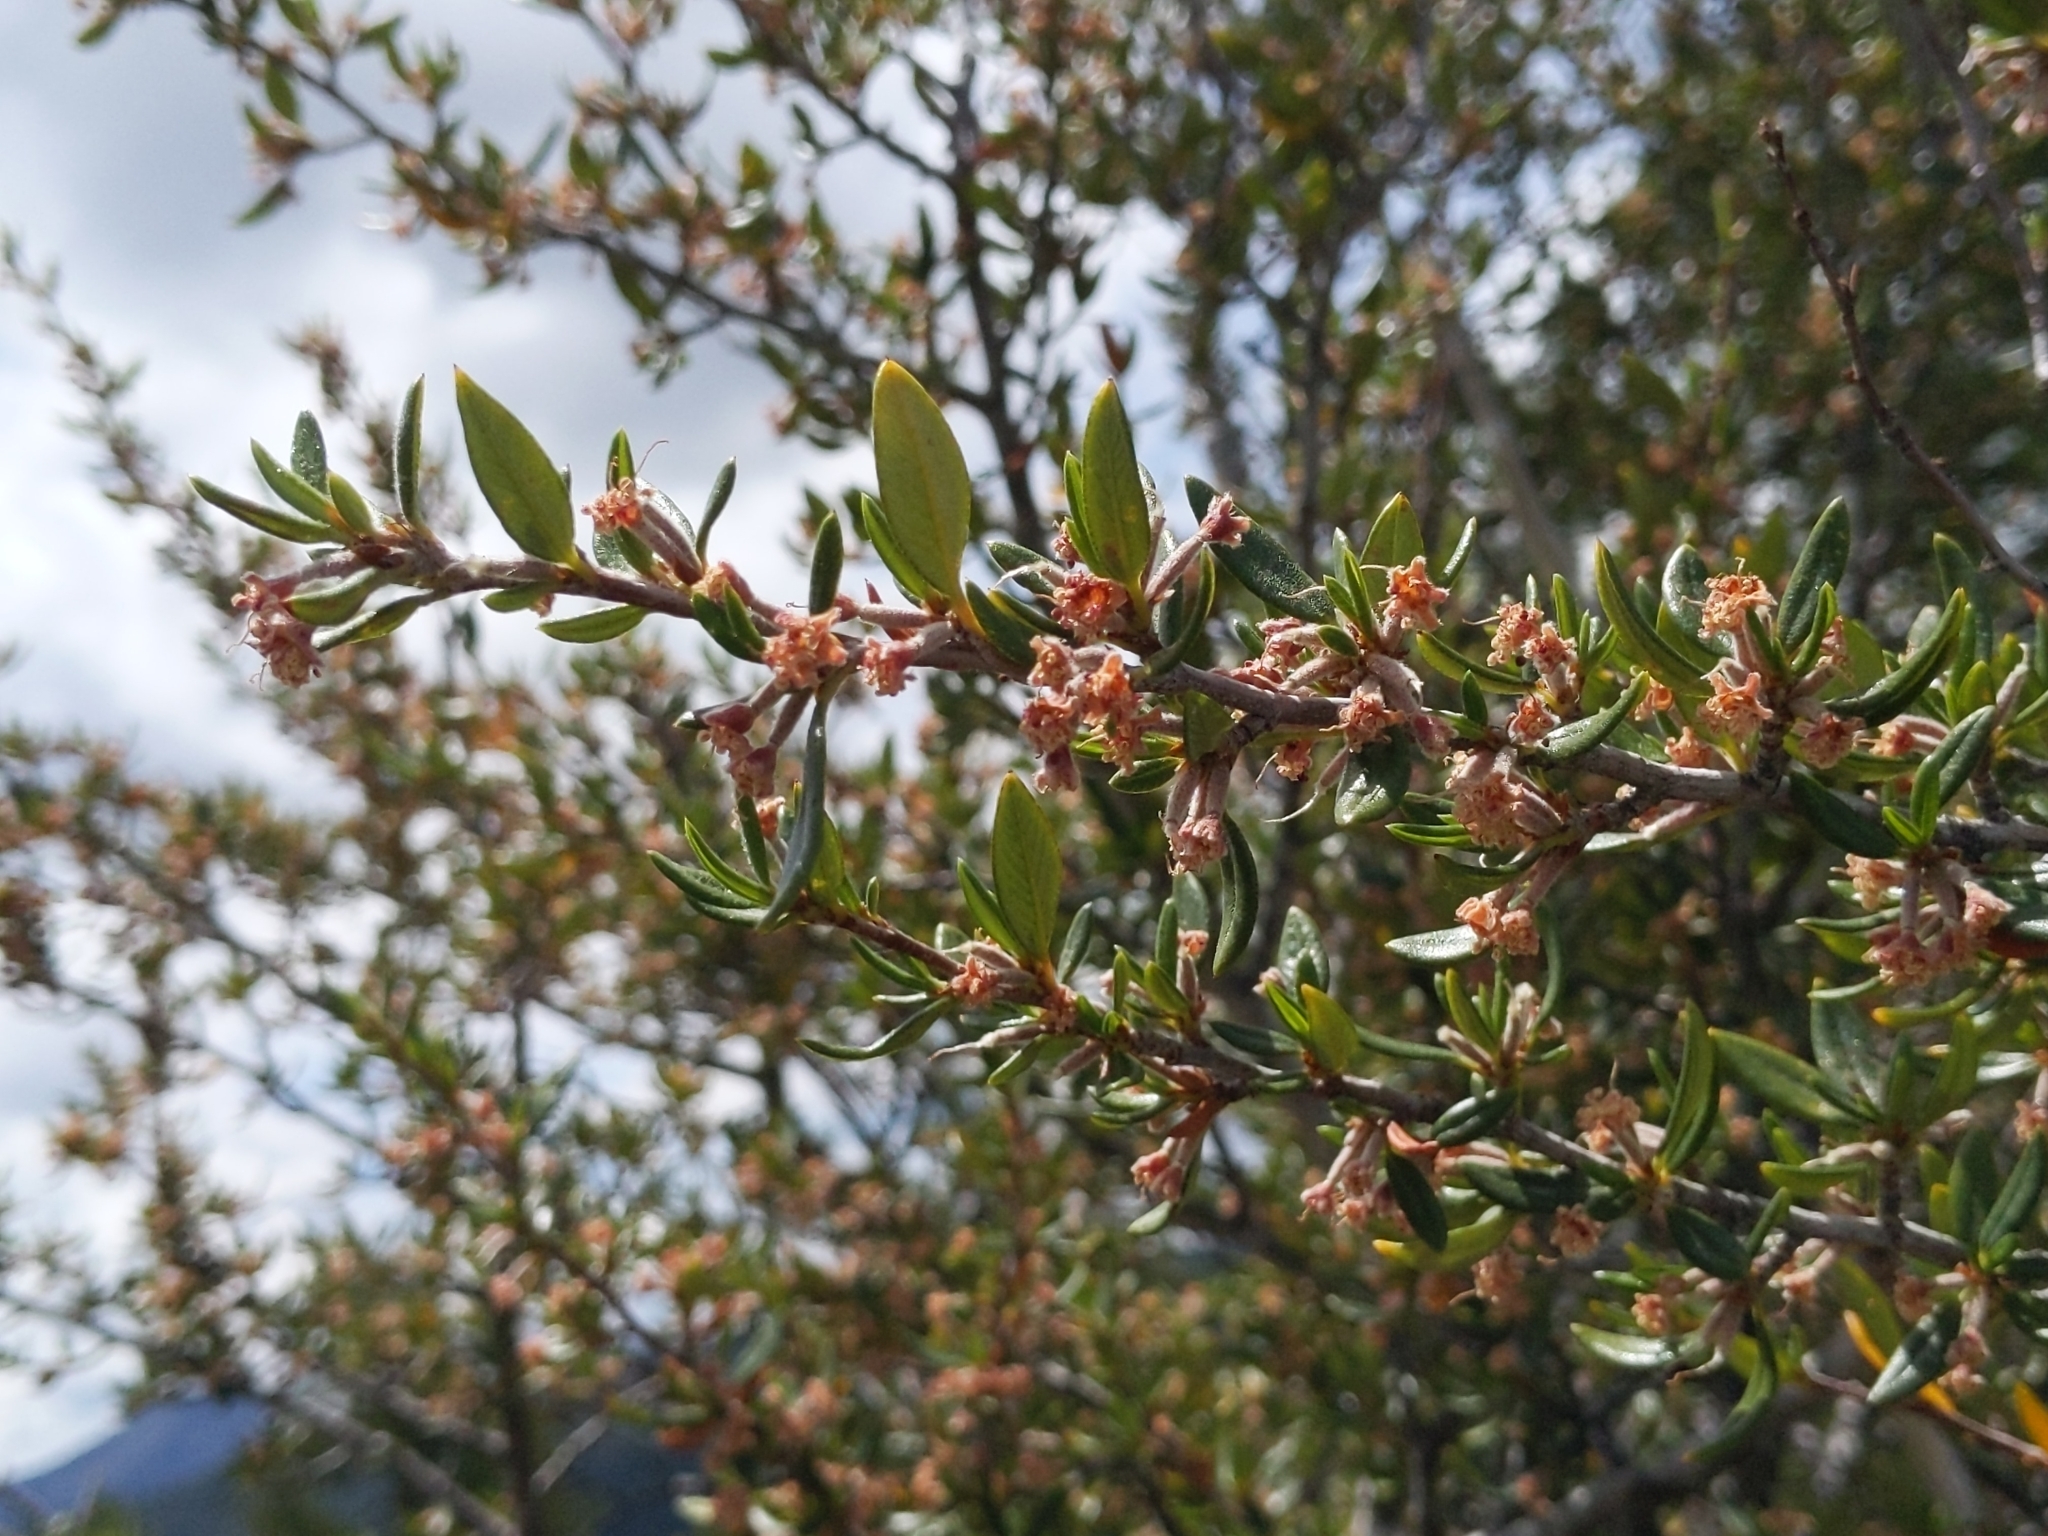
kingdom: Plantae
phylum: Tracheophyta
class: Magnoliopsida
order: Rosales
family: Rosaceae
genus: Cercocarpus
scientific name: Cercocarpus ledifolius
